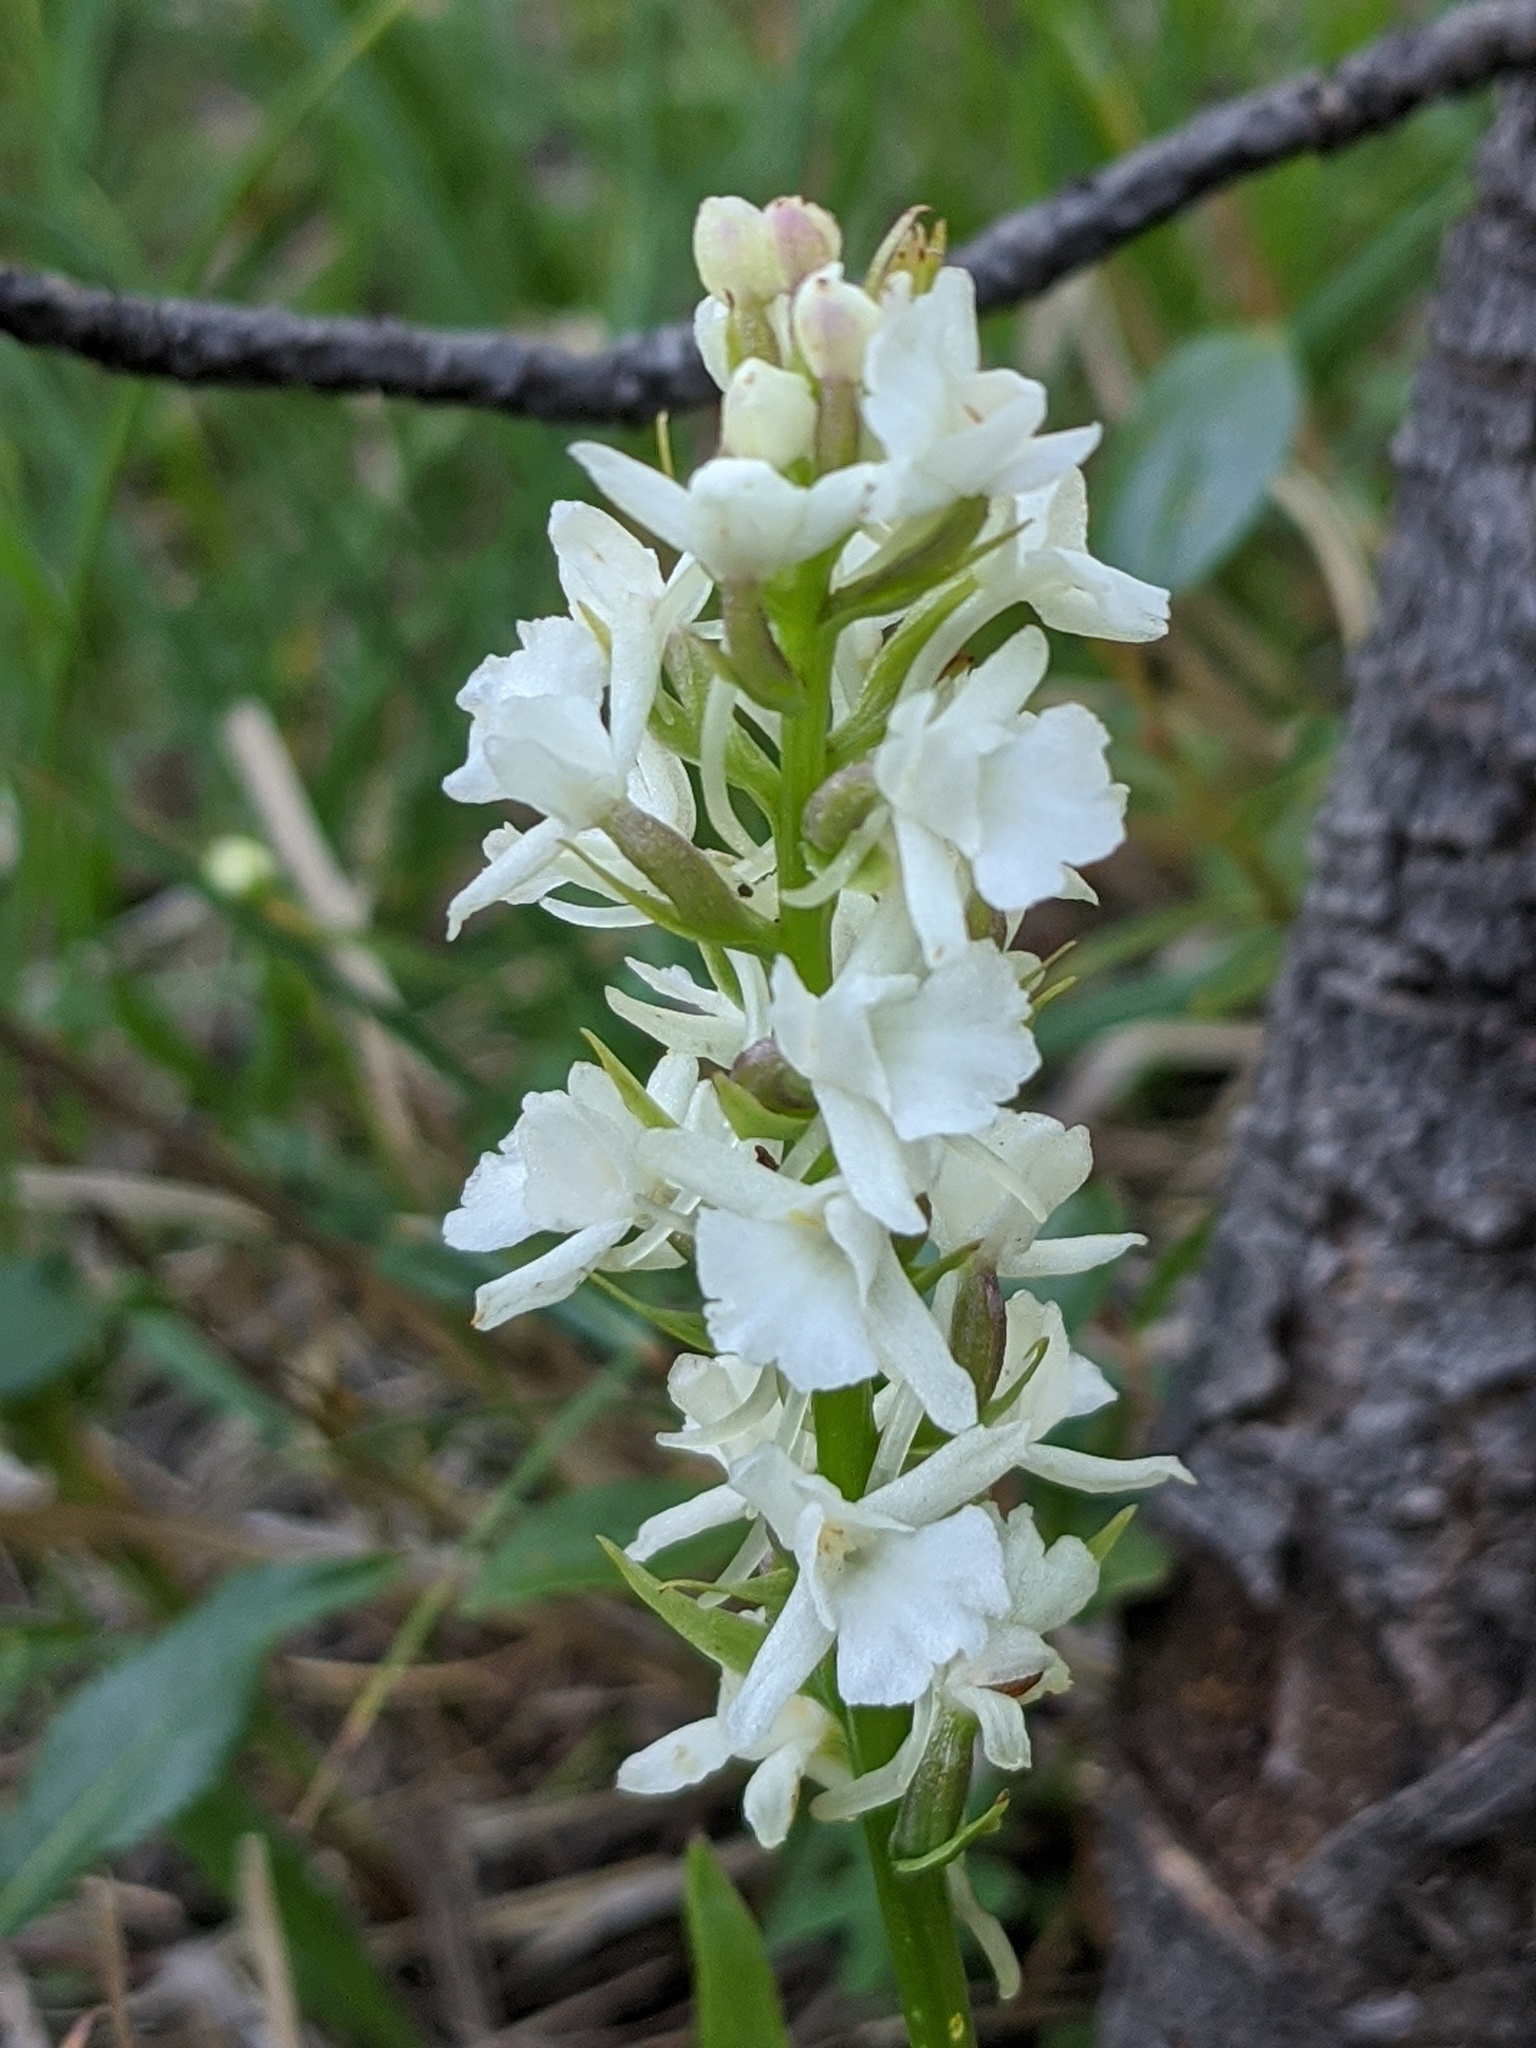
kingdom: Plantae
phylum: Tracheophyta
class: Liliopsida
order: Asparagales
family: Orchidaceae
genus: Gymnadenia
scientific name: Gymnadenia conopsea
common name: Fragrant orchid
